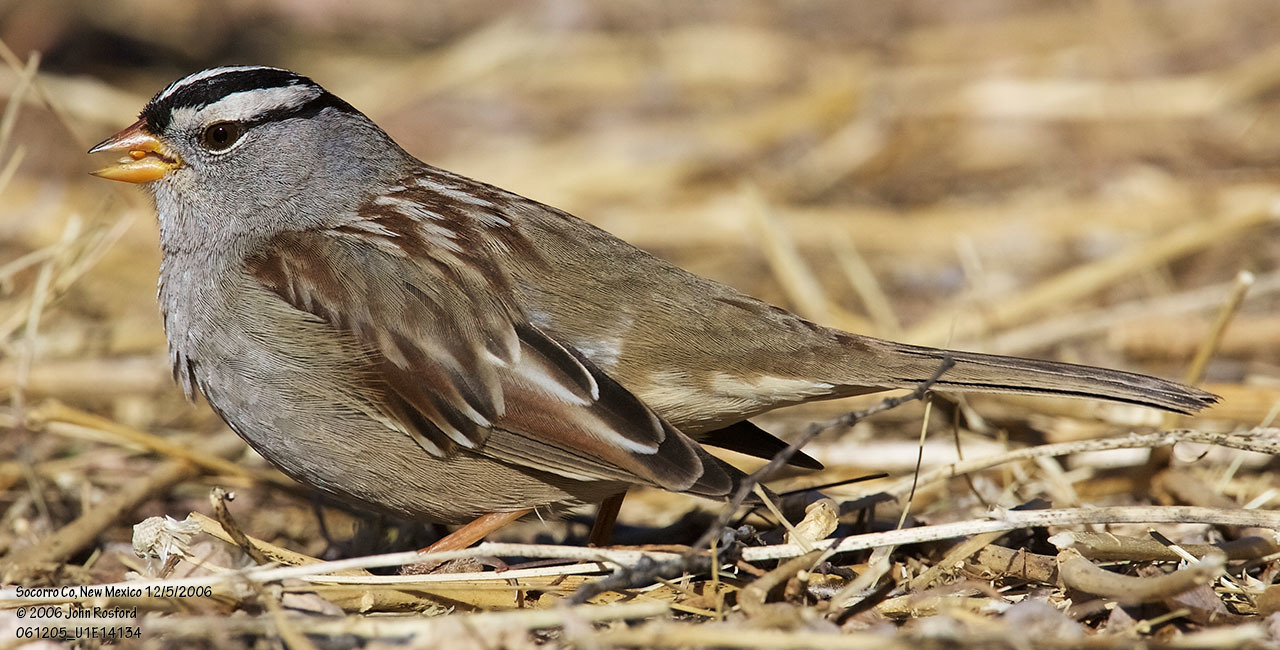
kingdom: Animalia
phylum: Chordata
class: Aves
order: Passeriformes
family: Passerellidae
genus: Zonotrichia
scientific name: Zonotrichia leucophrys
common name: White-crowned sparrow
